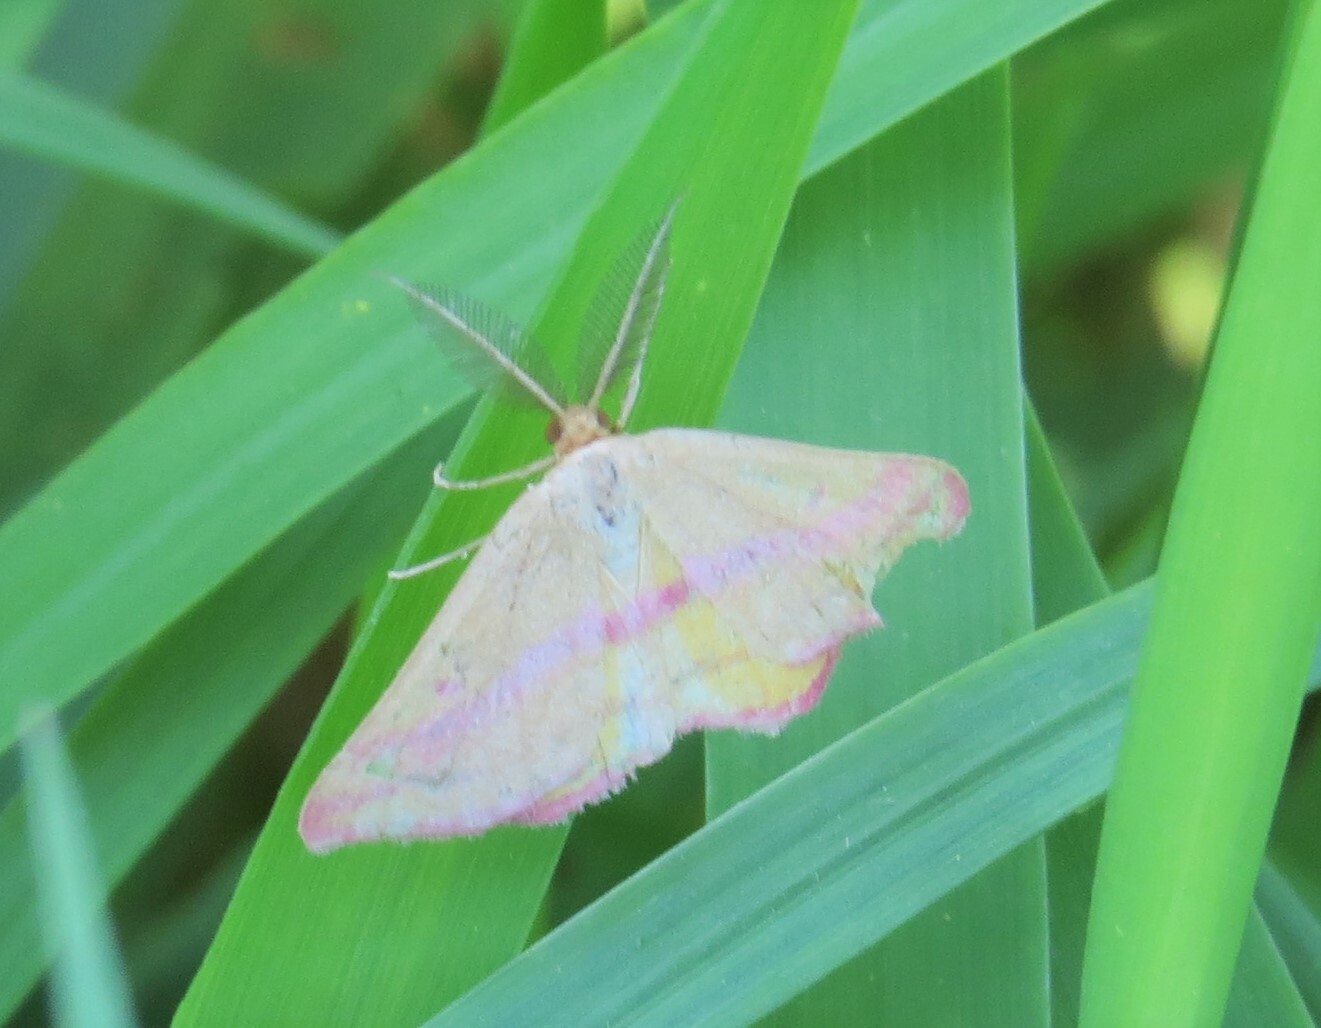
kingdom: Animalia
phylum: Arthropoda
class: Insecta
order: Lepidoptera
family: Geometridae
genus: Haematopis
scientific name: Haematopis grataria
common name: Chickweed geometer
